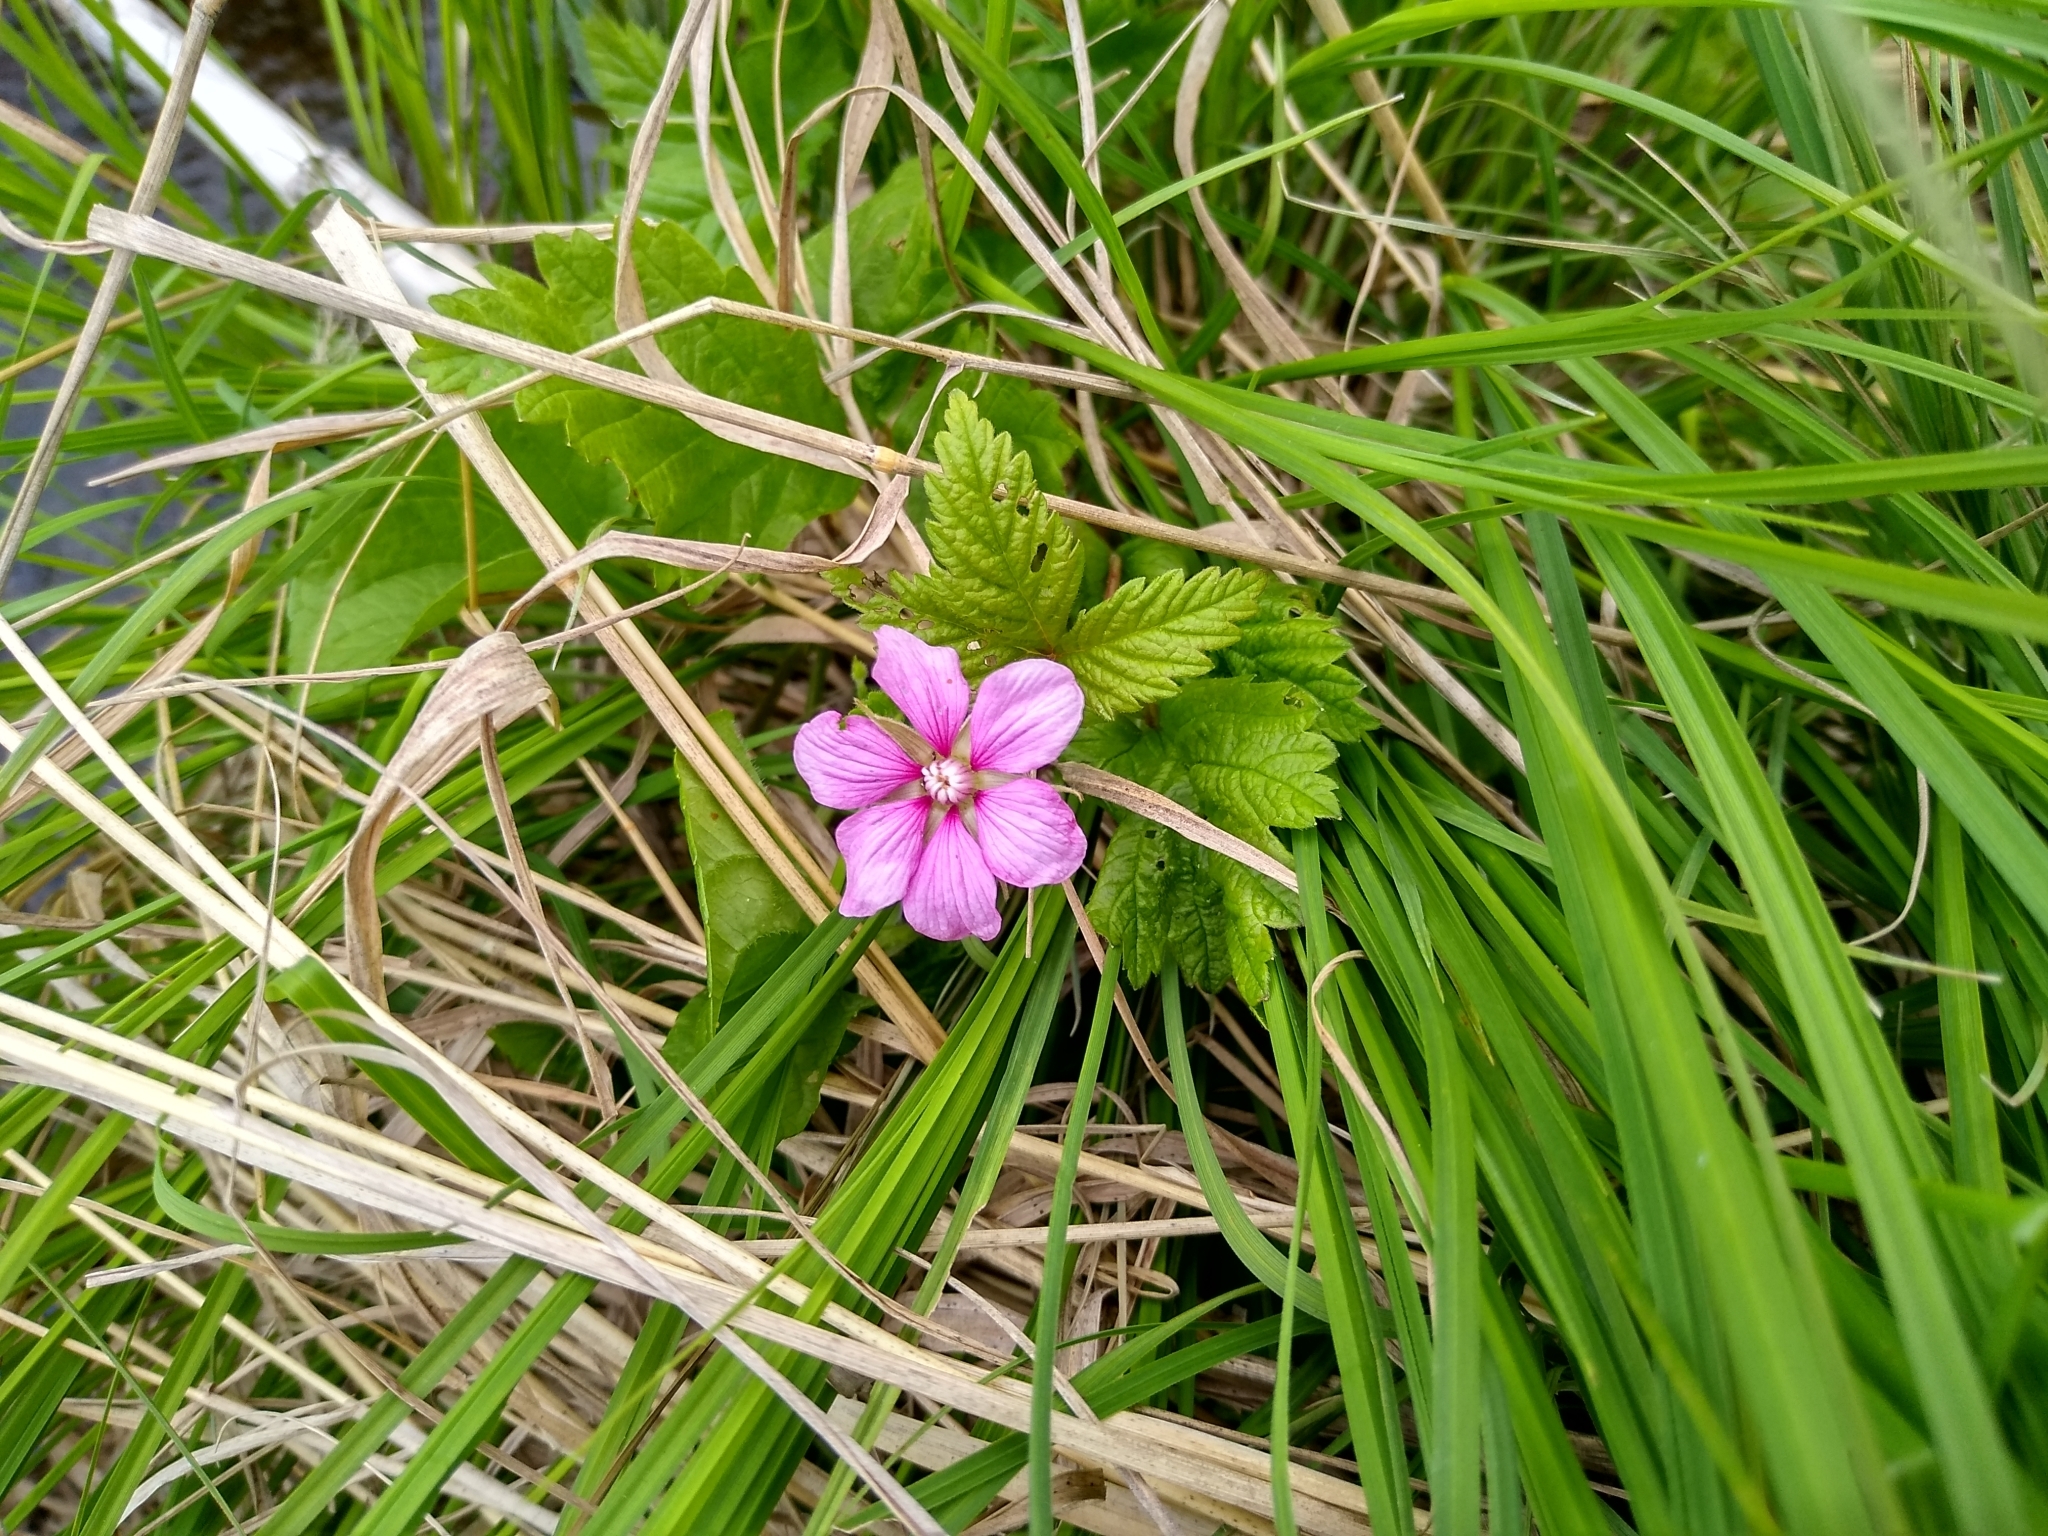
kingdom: Plantae
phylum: Tracheophyta
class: Magnoliopsida
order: Rosales
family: Rosaceae
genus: Rubus
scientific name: Rubus arcticus
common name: Arctic bramble
